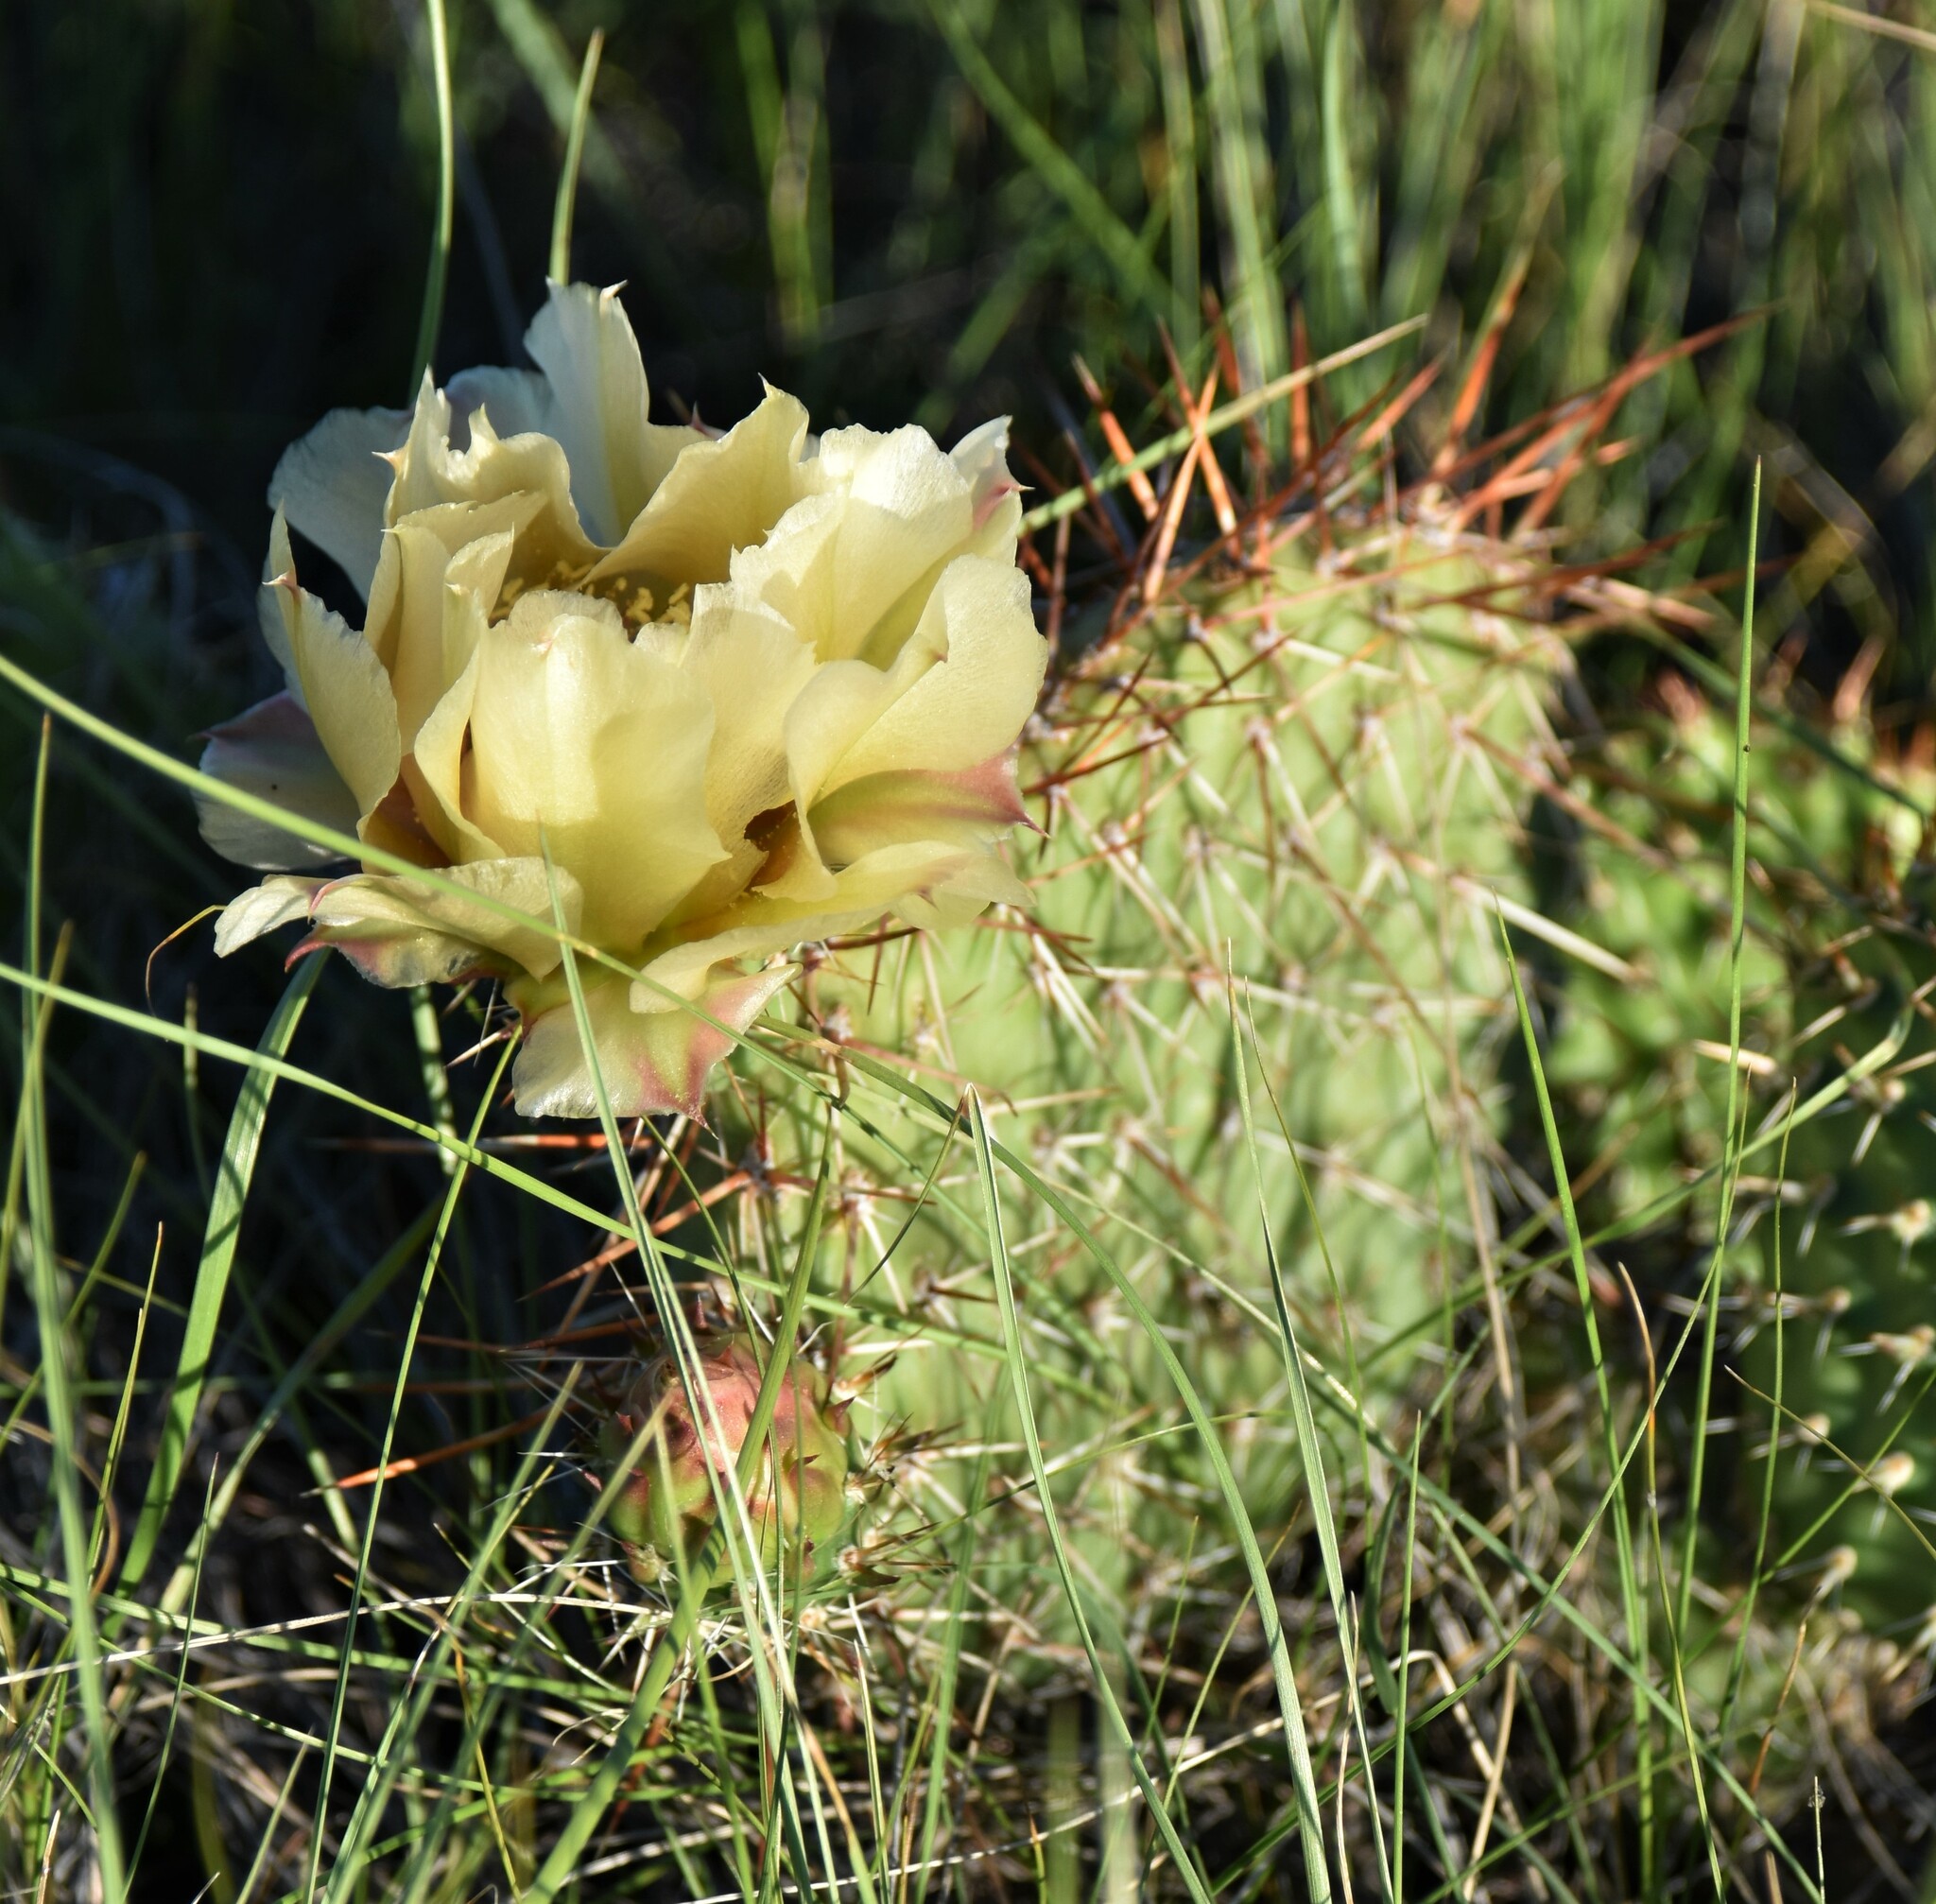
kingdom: Plantae
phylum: Tracheophyta
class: Magnoliopsida
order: Caryophyllales
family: Cactaceae
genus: Opuntia
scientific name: Opuntia polyacantha
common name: Plains prickly-pear
